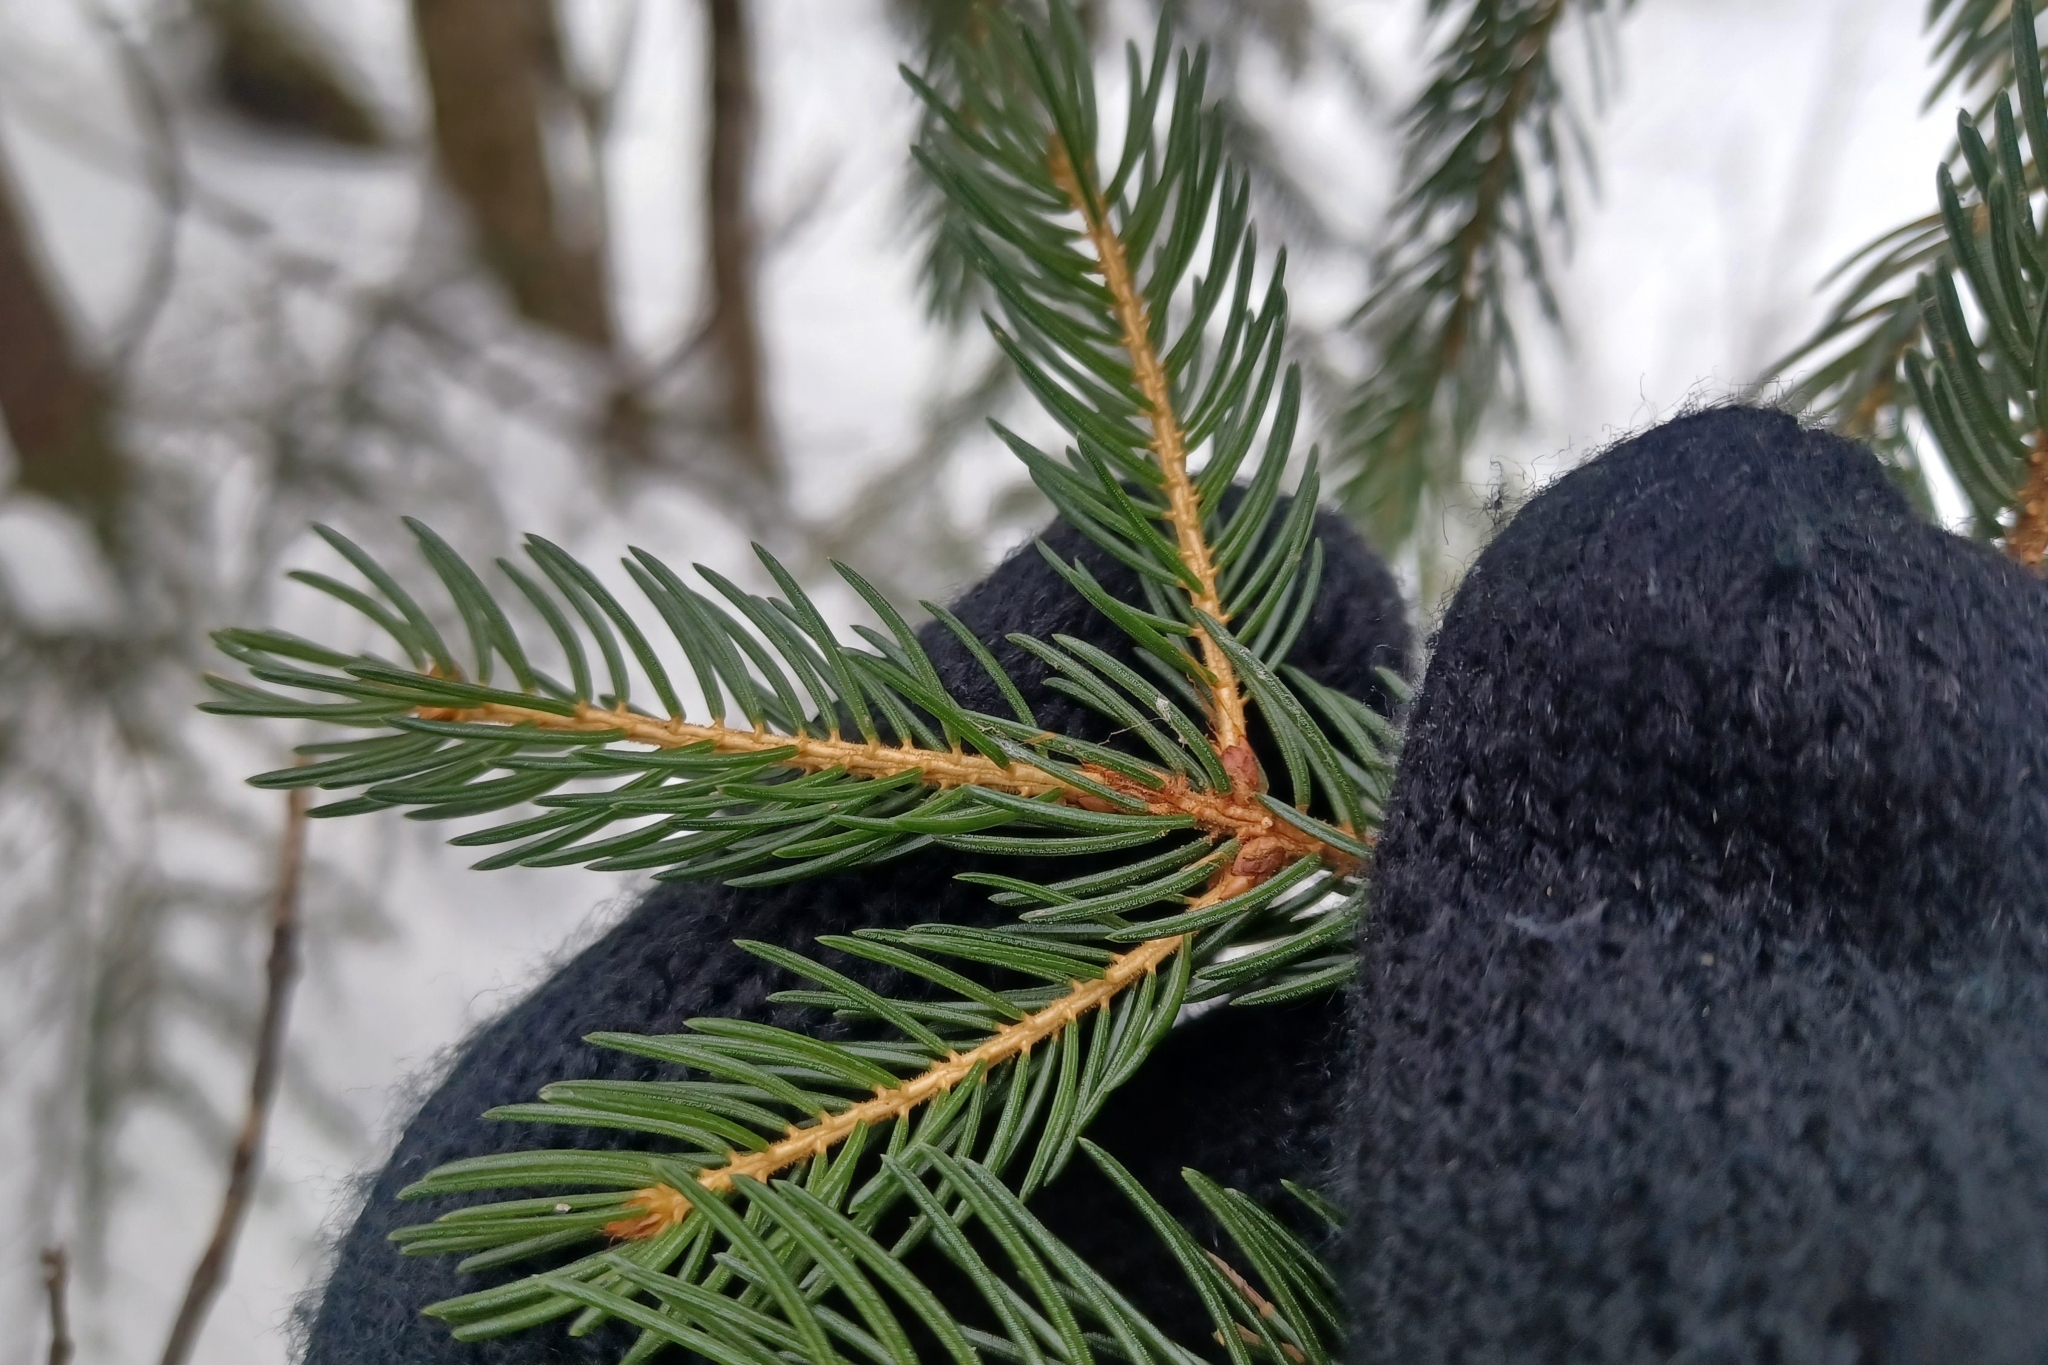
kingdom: Plantae
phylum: Tracheophyta
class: Pinopsida
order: Pinales
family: Pinaceae
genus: Picea
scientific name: Picea rubens
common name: Red spruce
